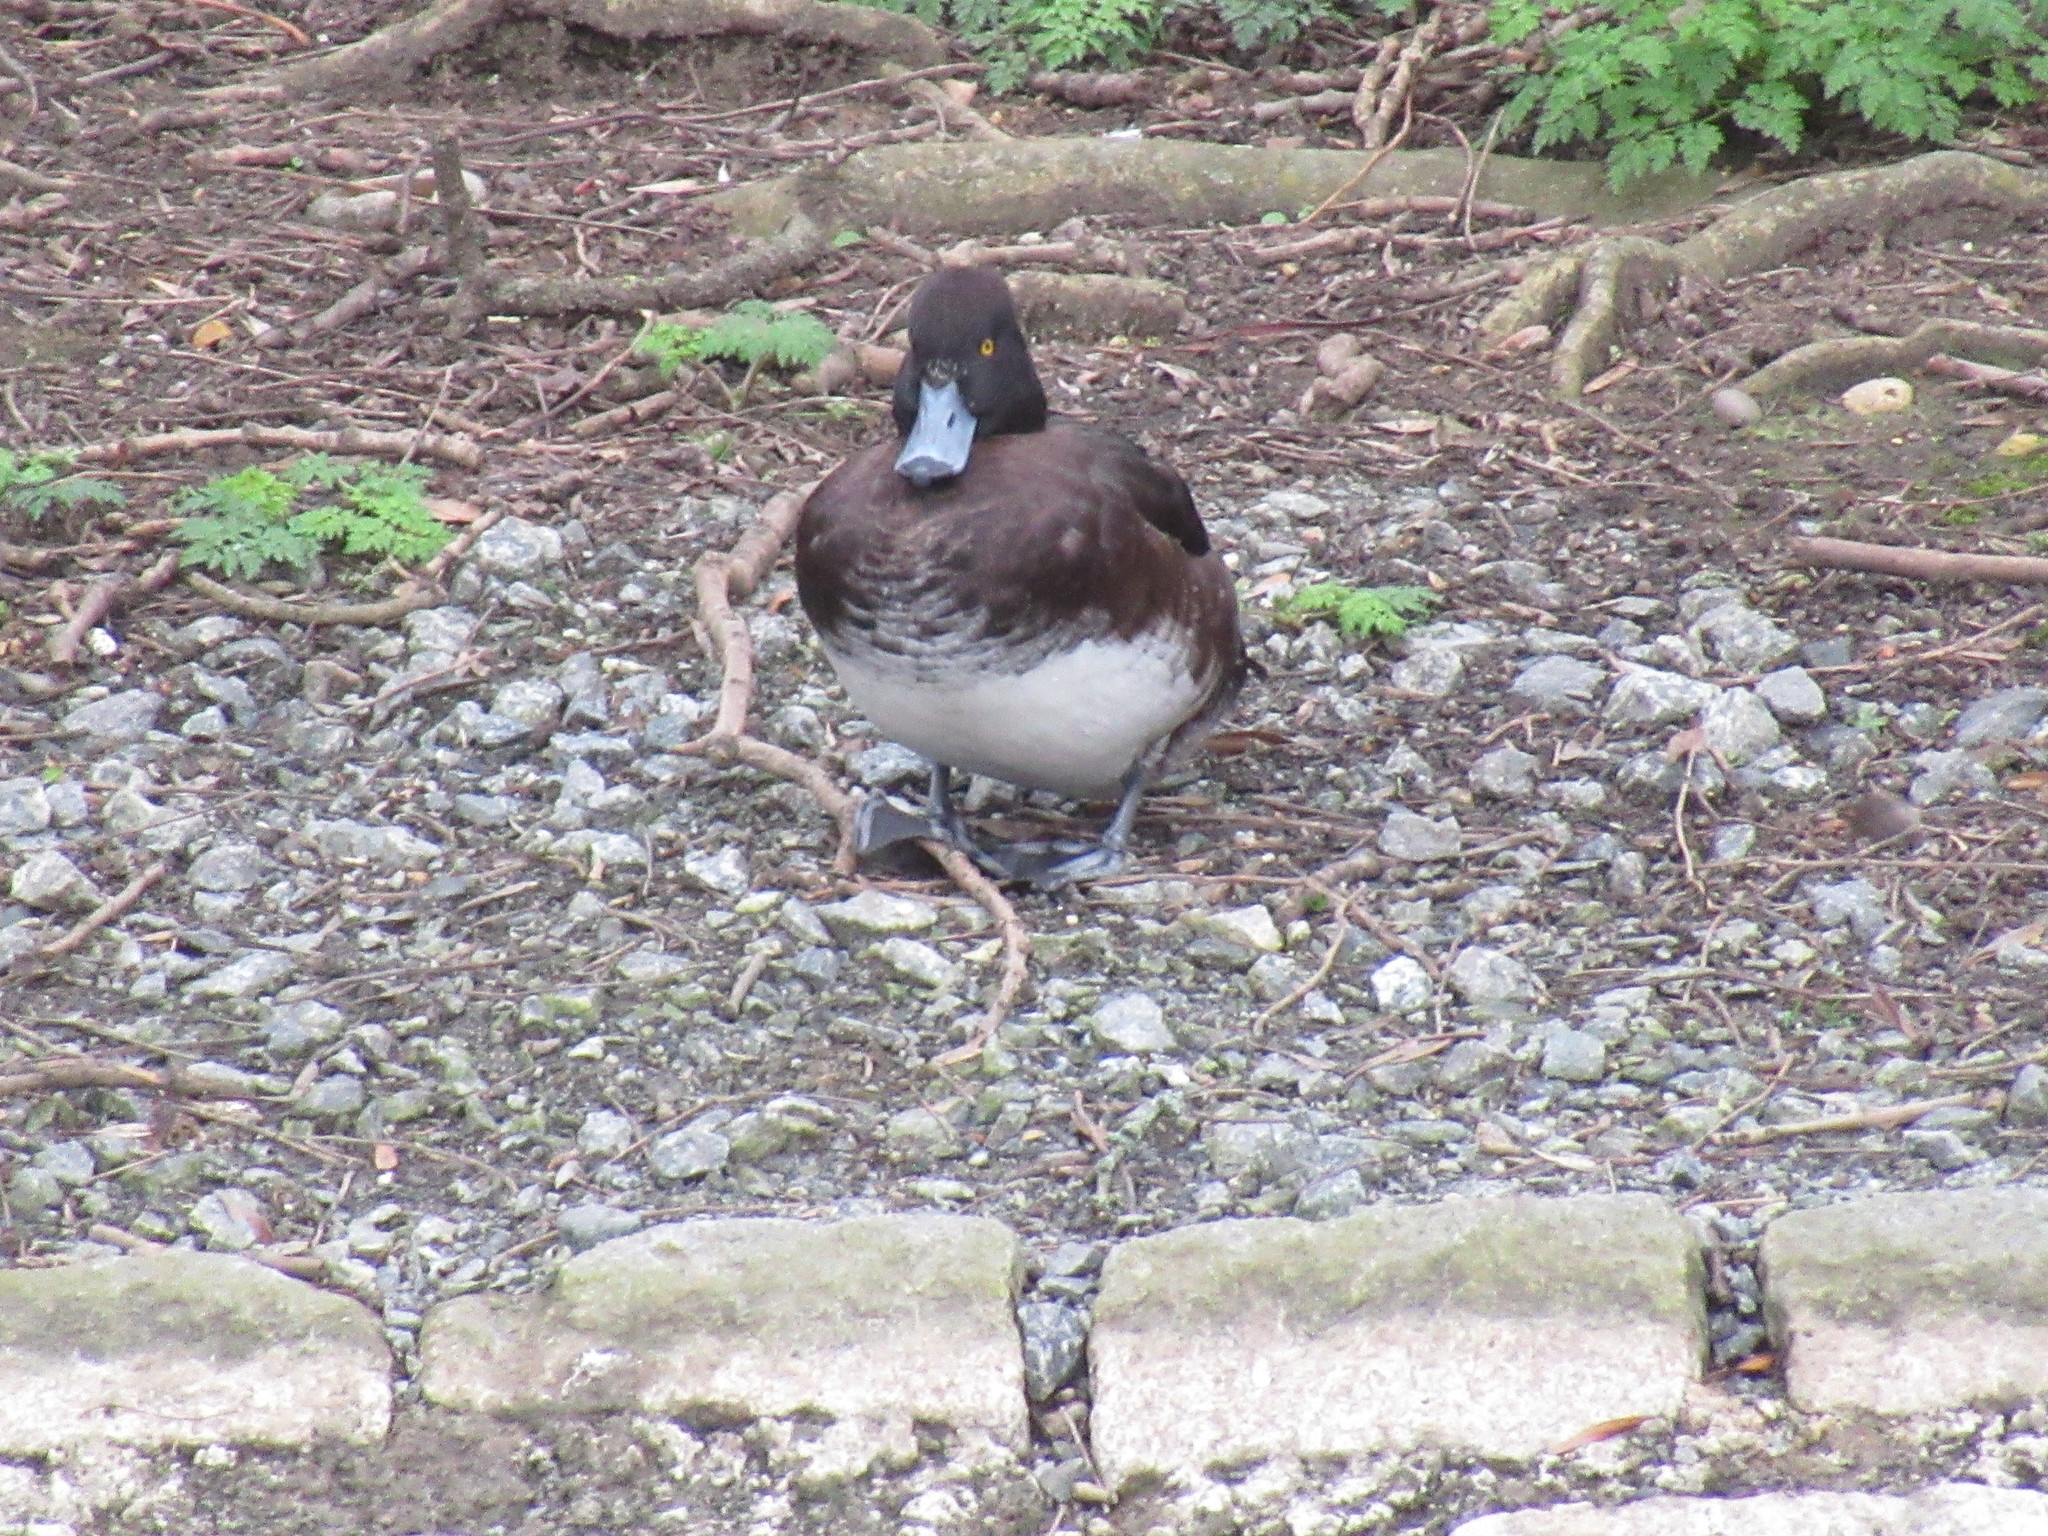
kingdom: Animalia
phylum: Chordata
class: Aves
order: Anseriformes
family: Anatidae
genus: Aythya
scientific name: Aythya fuligula
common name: Tufted duck
